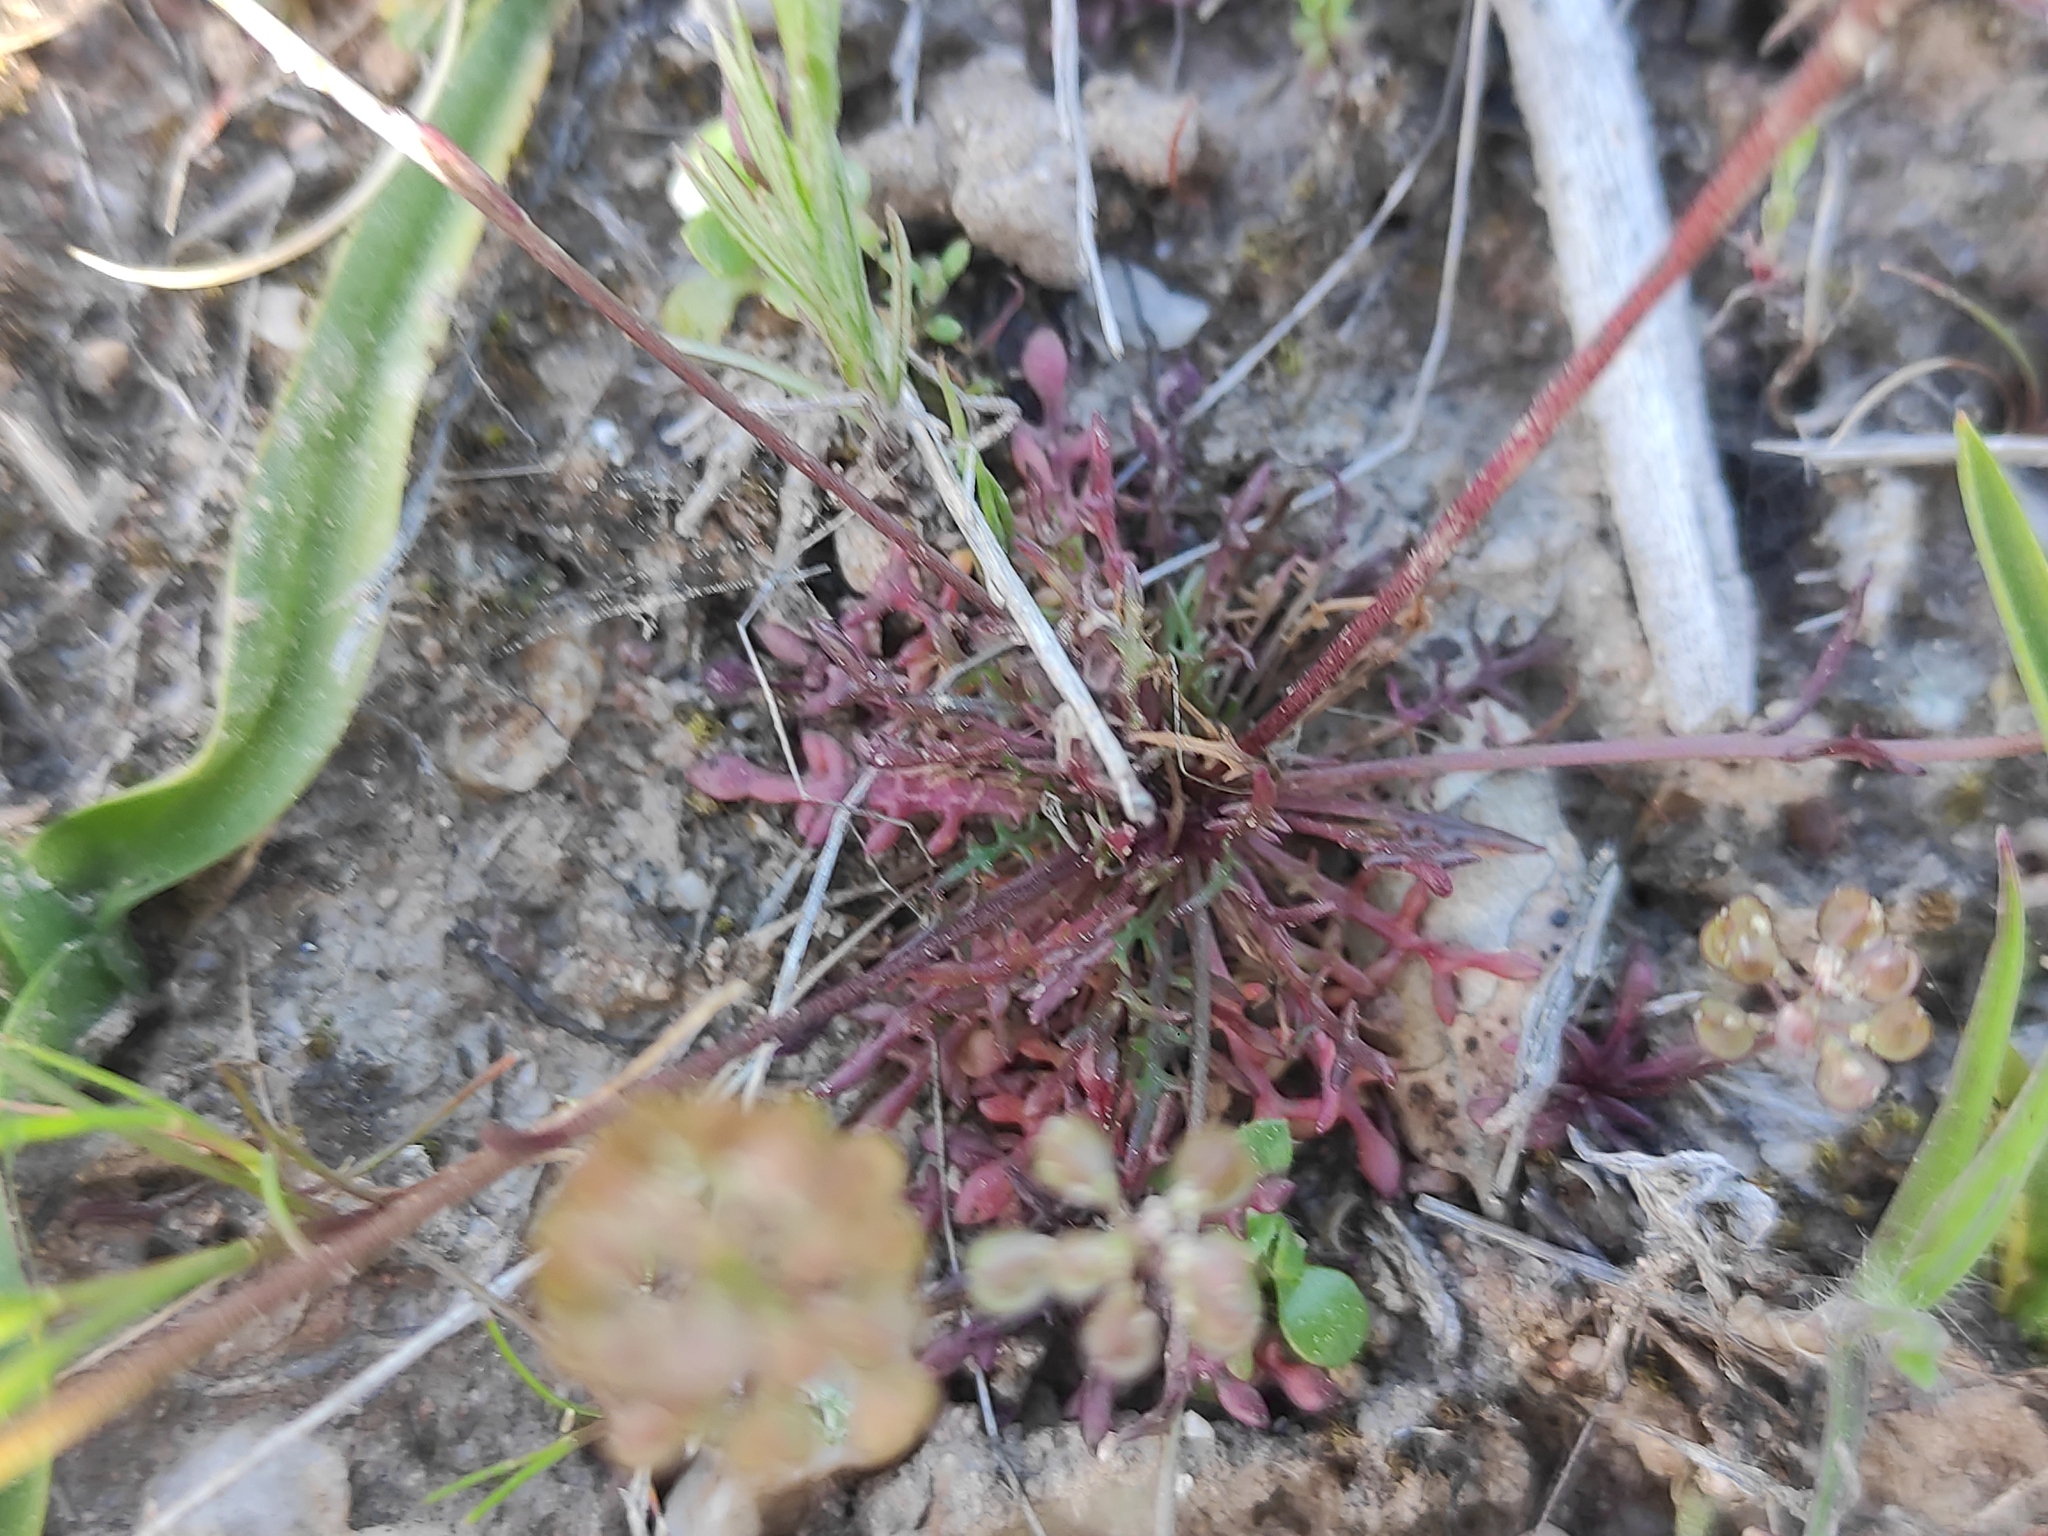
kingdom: Plantae
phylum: Tracheophyta
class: Magnoliopsida
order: Brassicales
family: Brassicaceae
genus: Teesdalia
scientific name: Teesdalia coronopifolia
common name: Lesser shepherdscress
